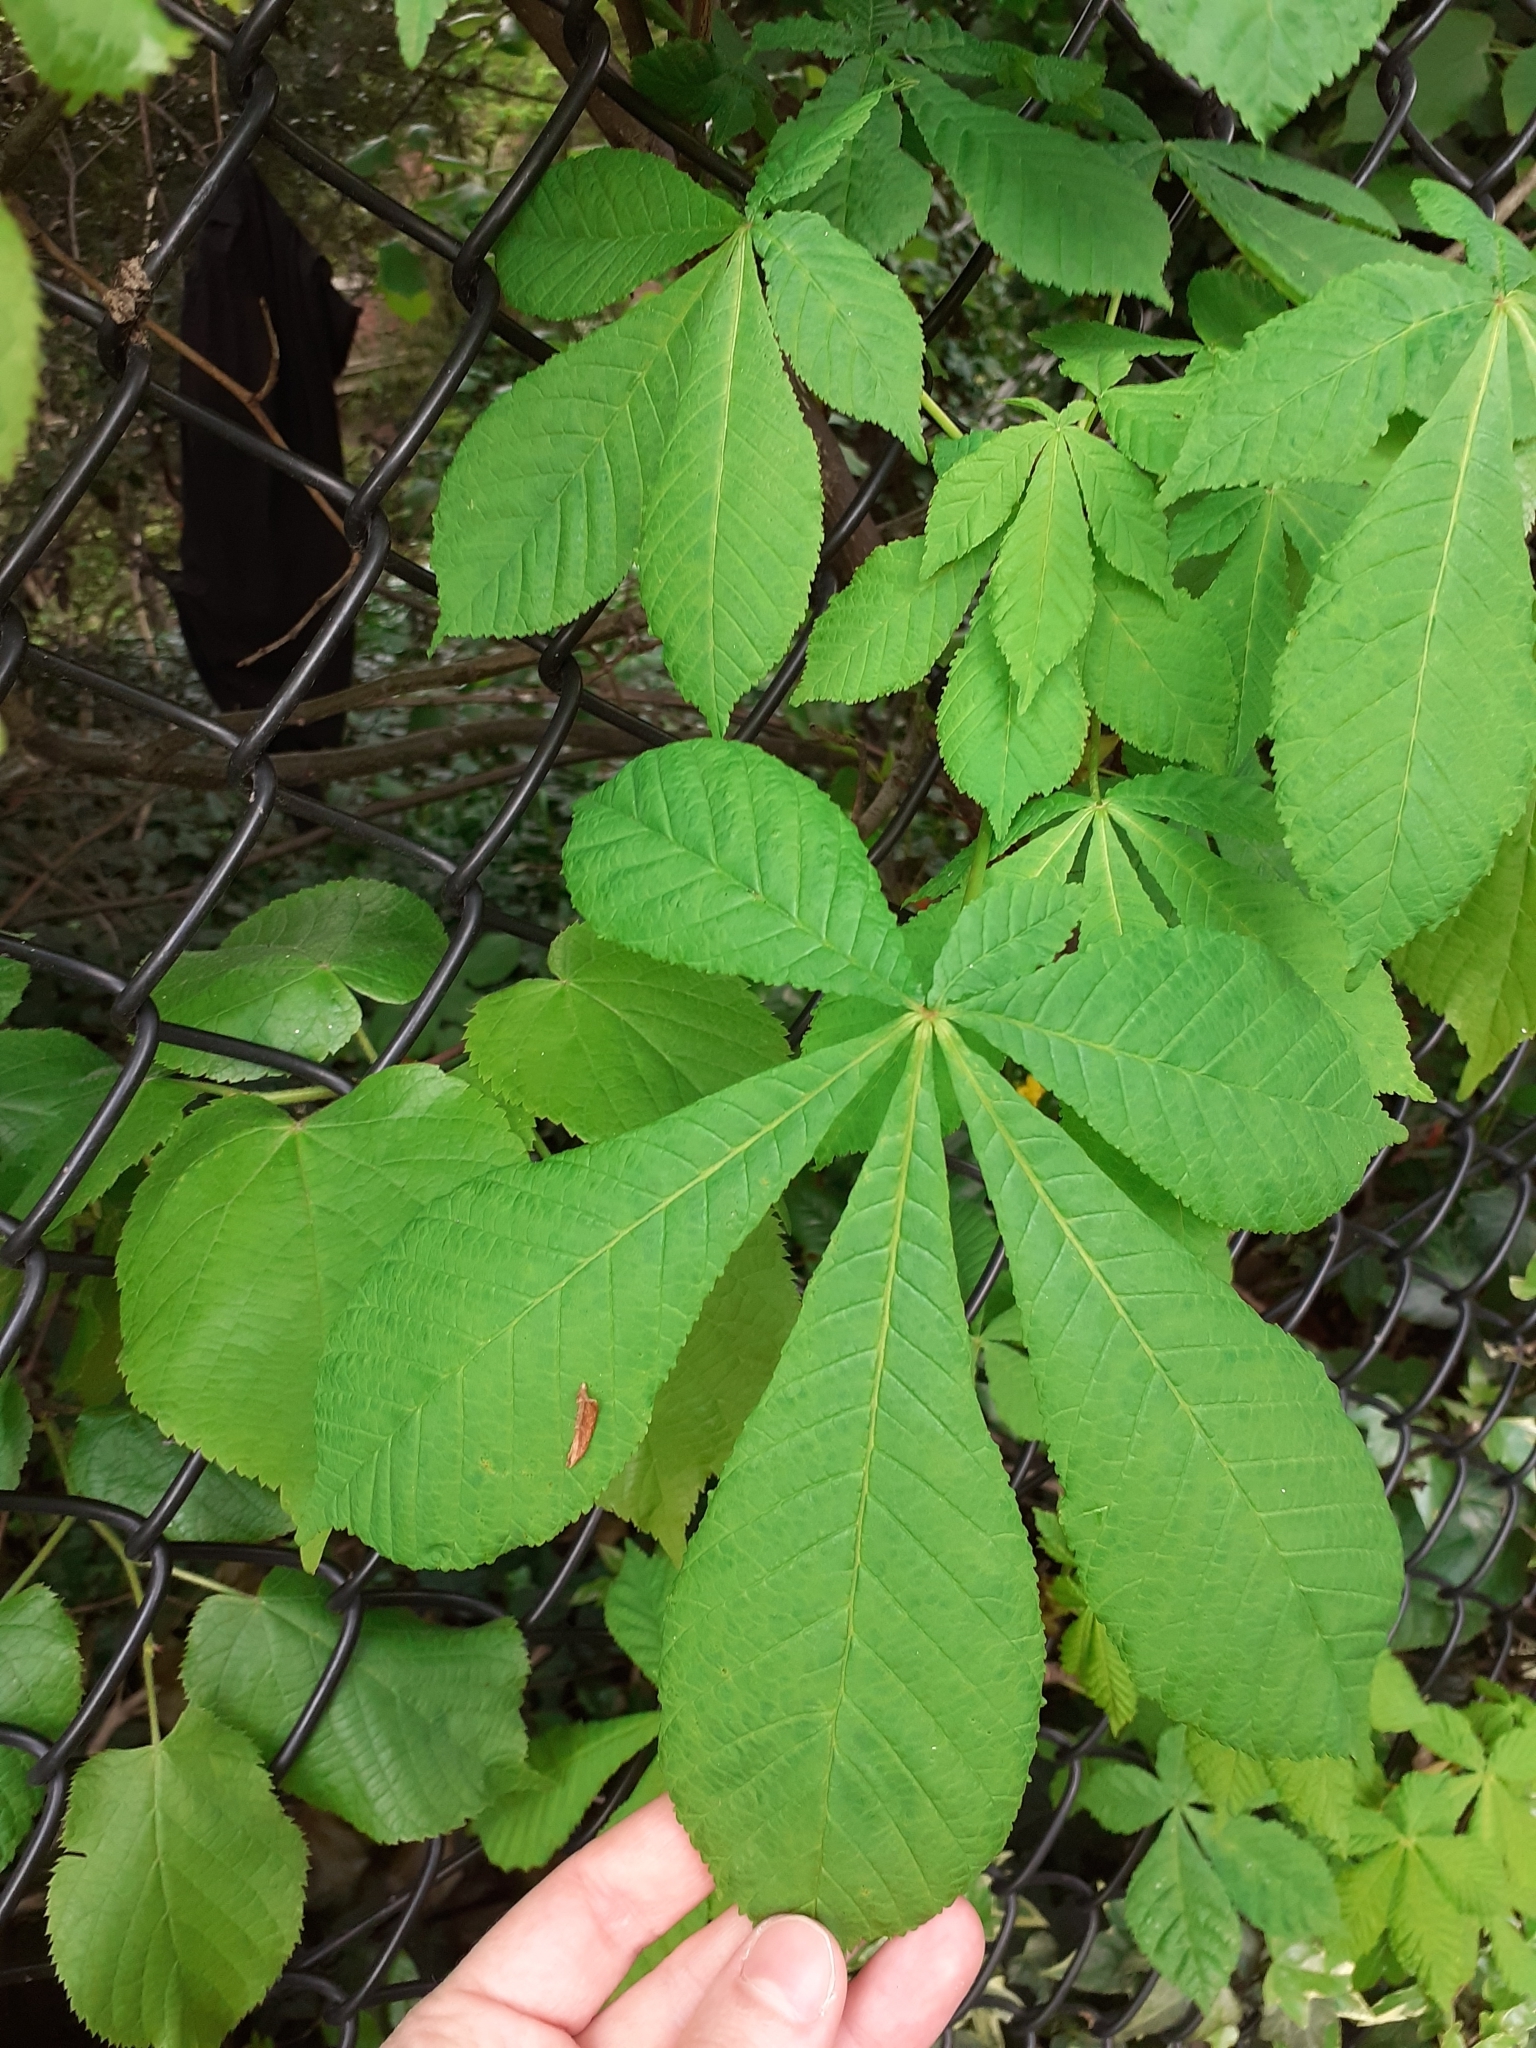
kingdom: Plantae
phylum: Tracheophyta
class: Magnoliopsida
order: Sapindales
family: Sapindaceae
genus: Aesculus
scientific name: Aesculus hippocastanum
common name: Horse-chestnut
